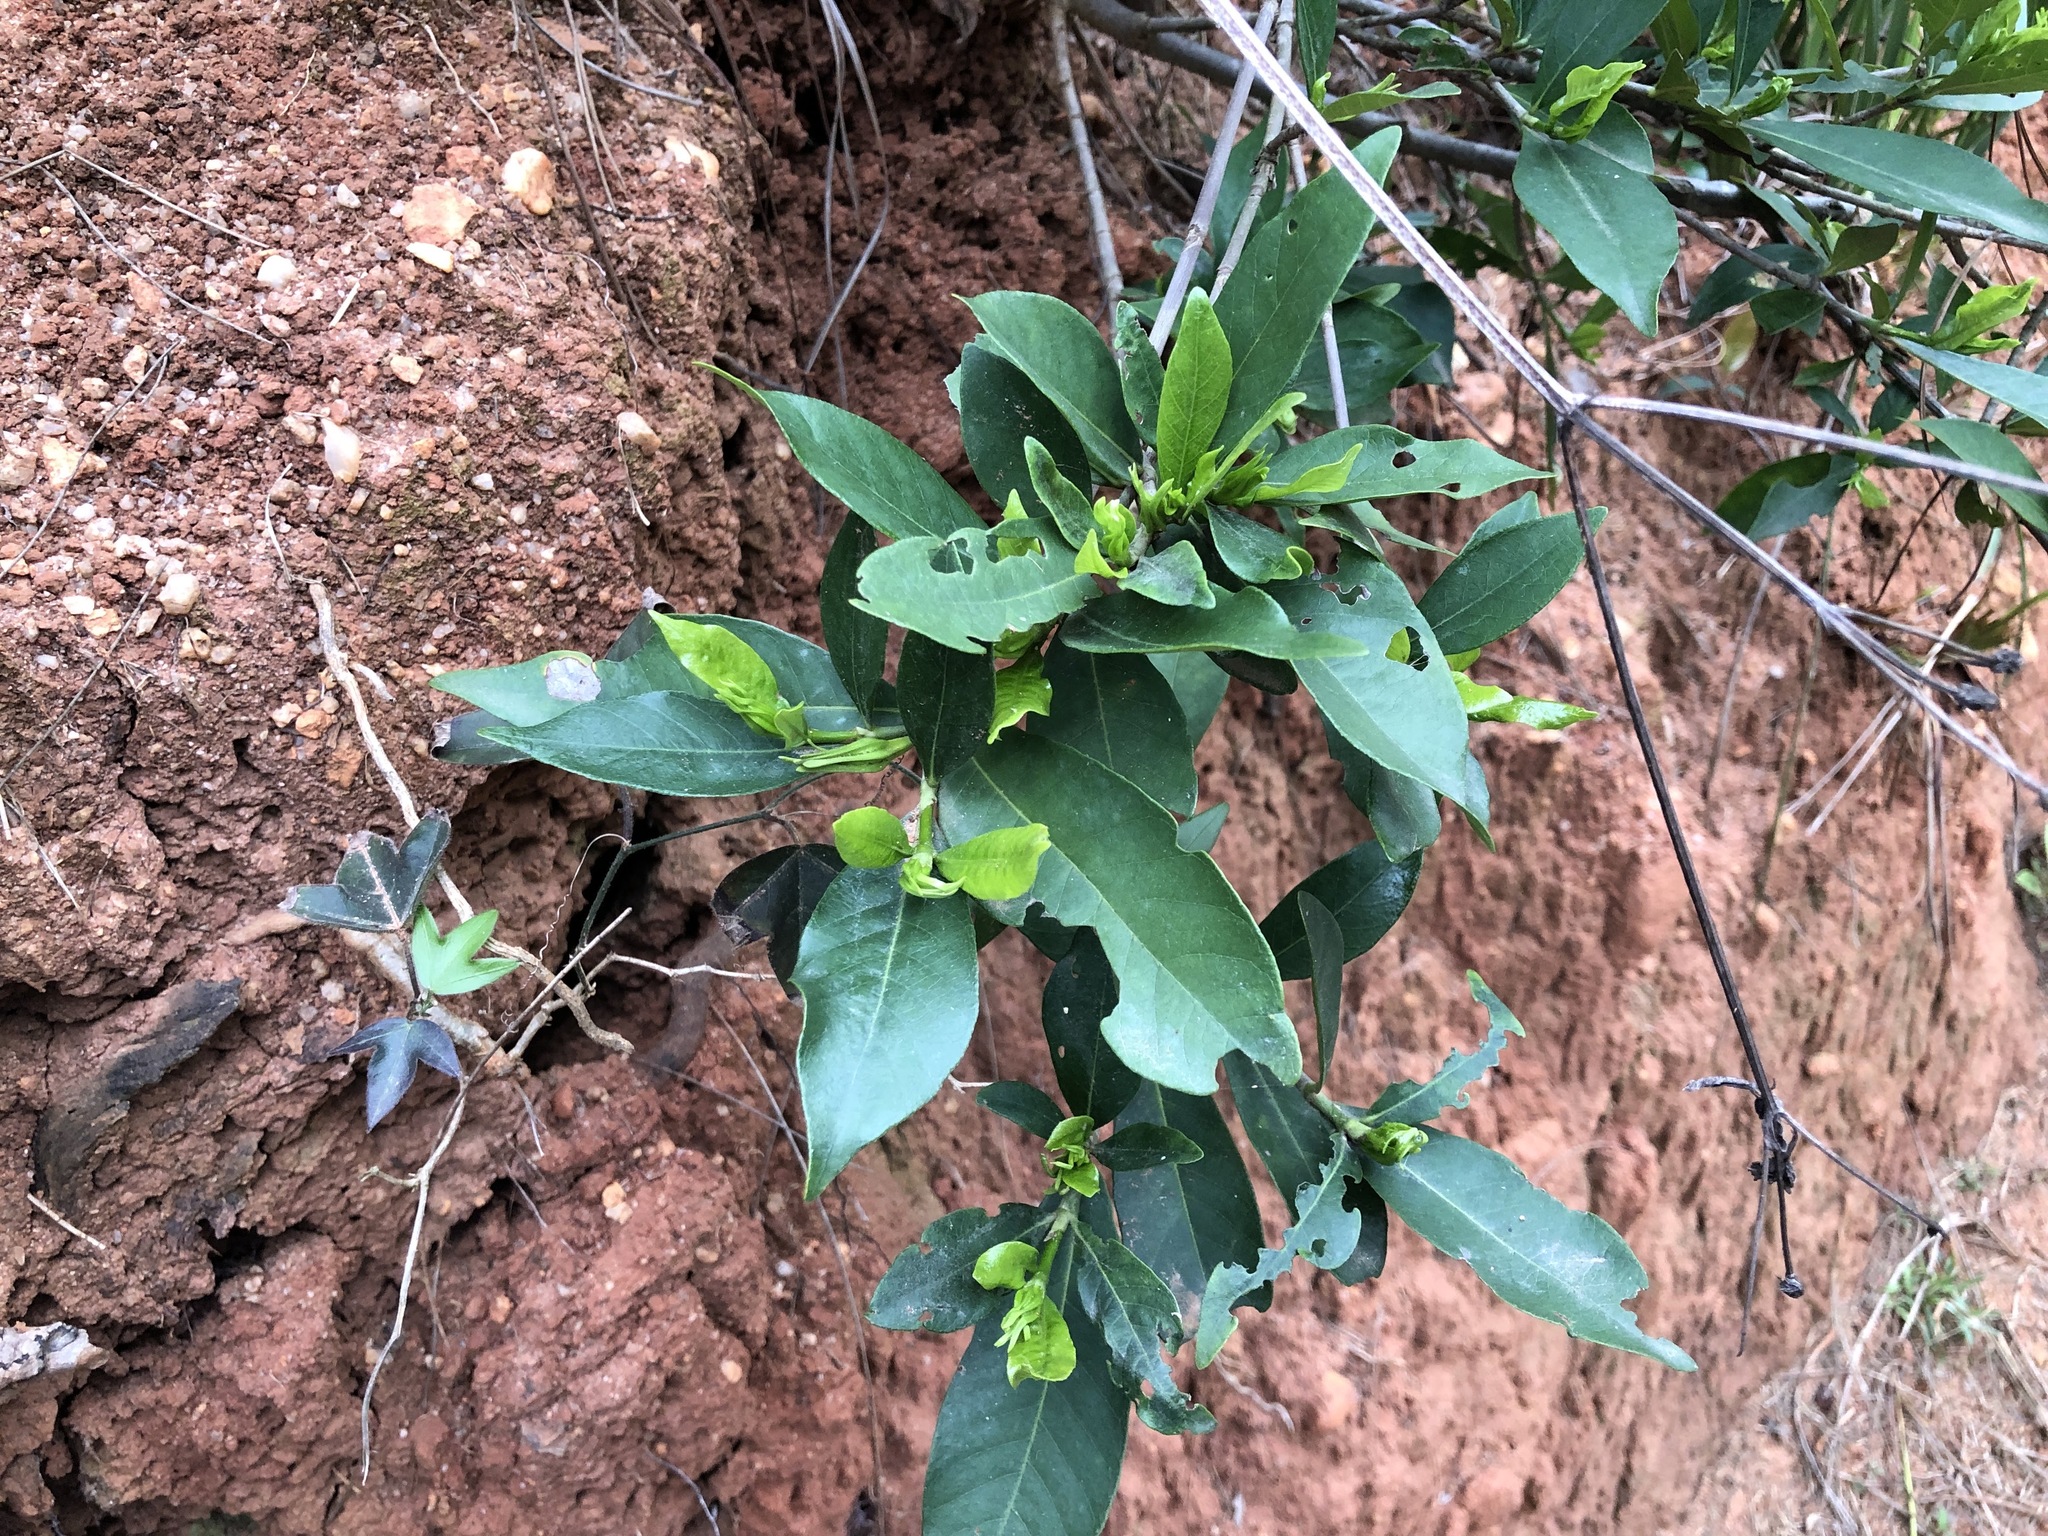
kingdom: Plantae
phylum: Tracheophyta
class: Magnoliopsida
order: Gentianales
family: Rubiaceae
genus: Gardenia
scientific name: Gardenia jasminoides
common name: Cape-jasmine
